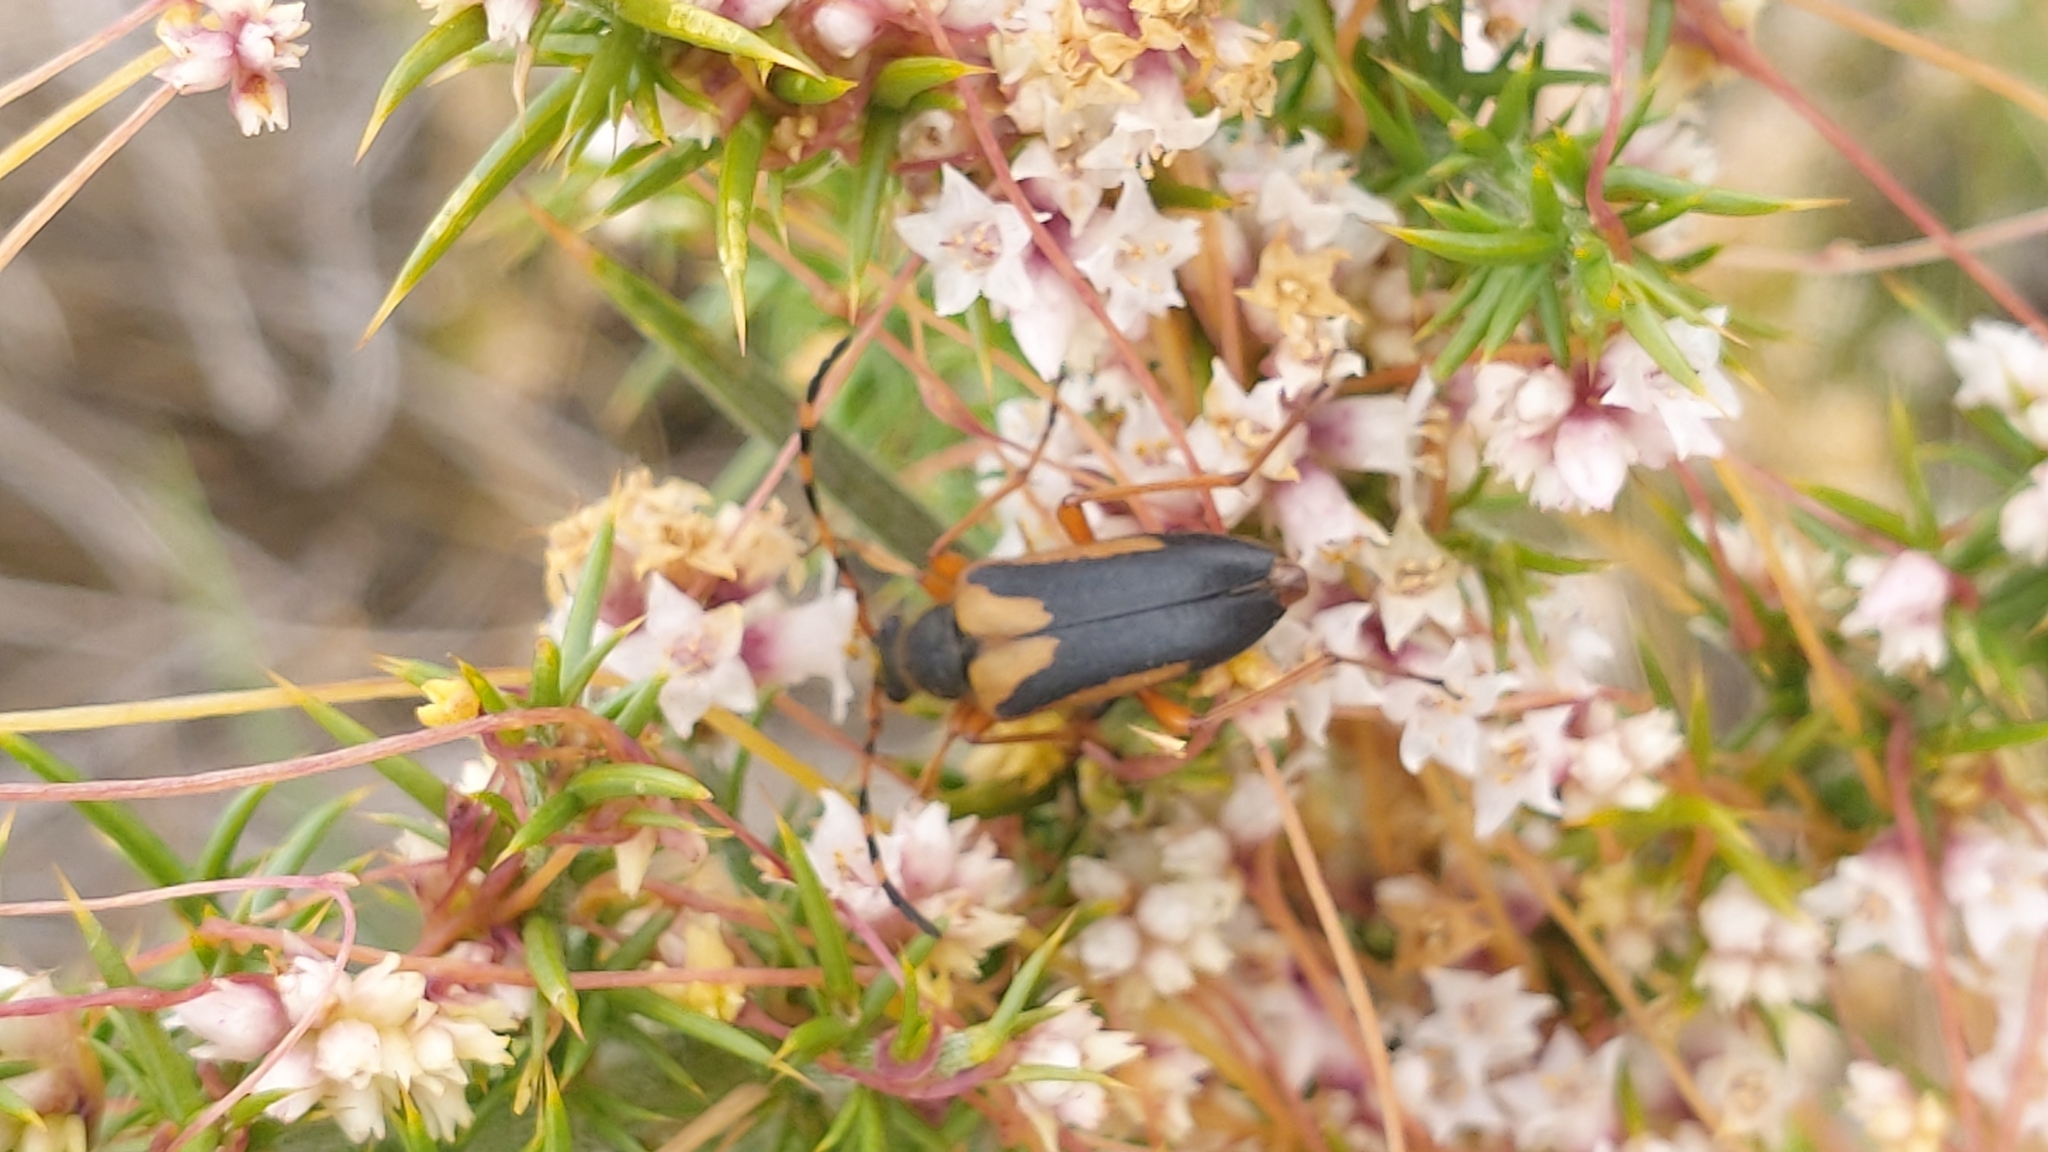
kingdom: Animalia
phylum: Arthropoda
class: Insecta
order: Coleoptera
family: Cerambycidae
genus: Stictoleptura
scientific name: Stictoleptura stragulata
